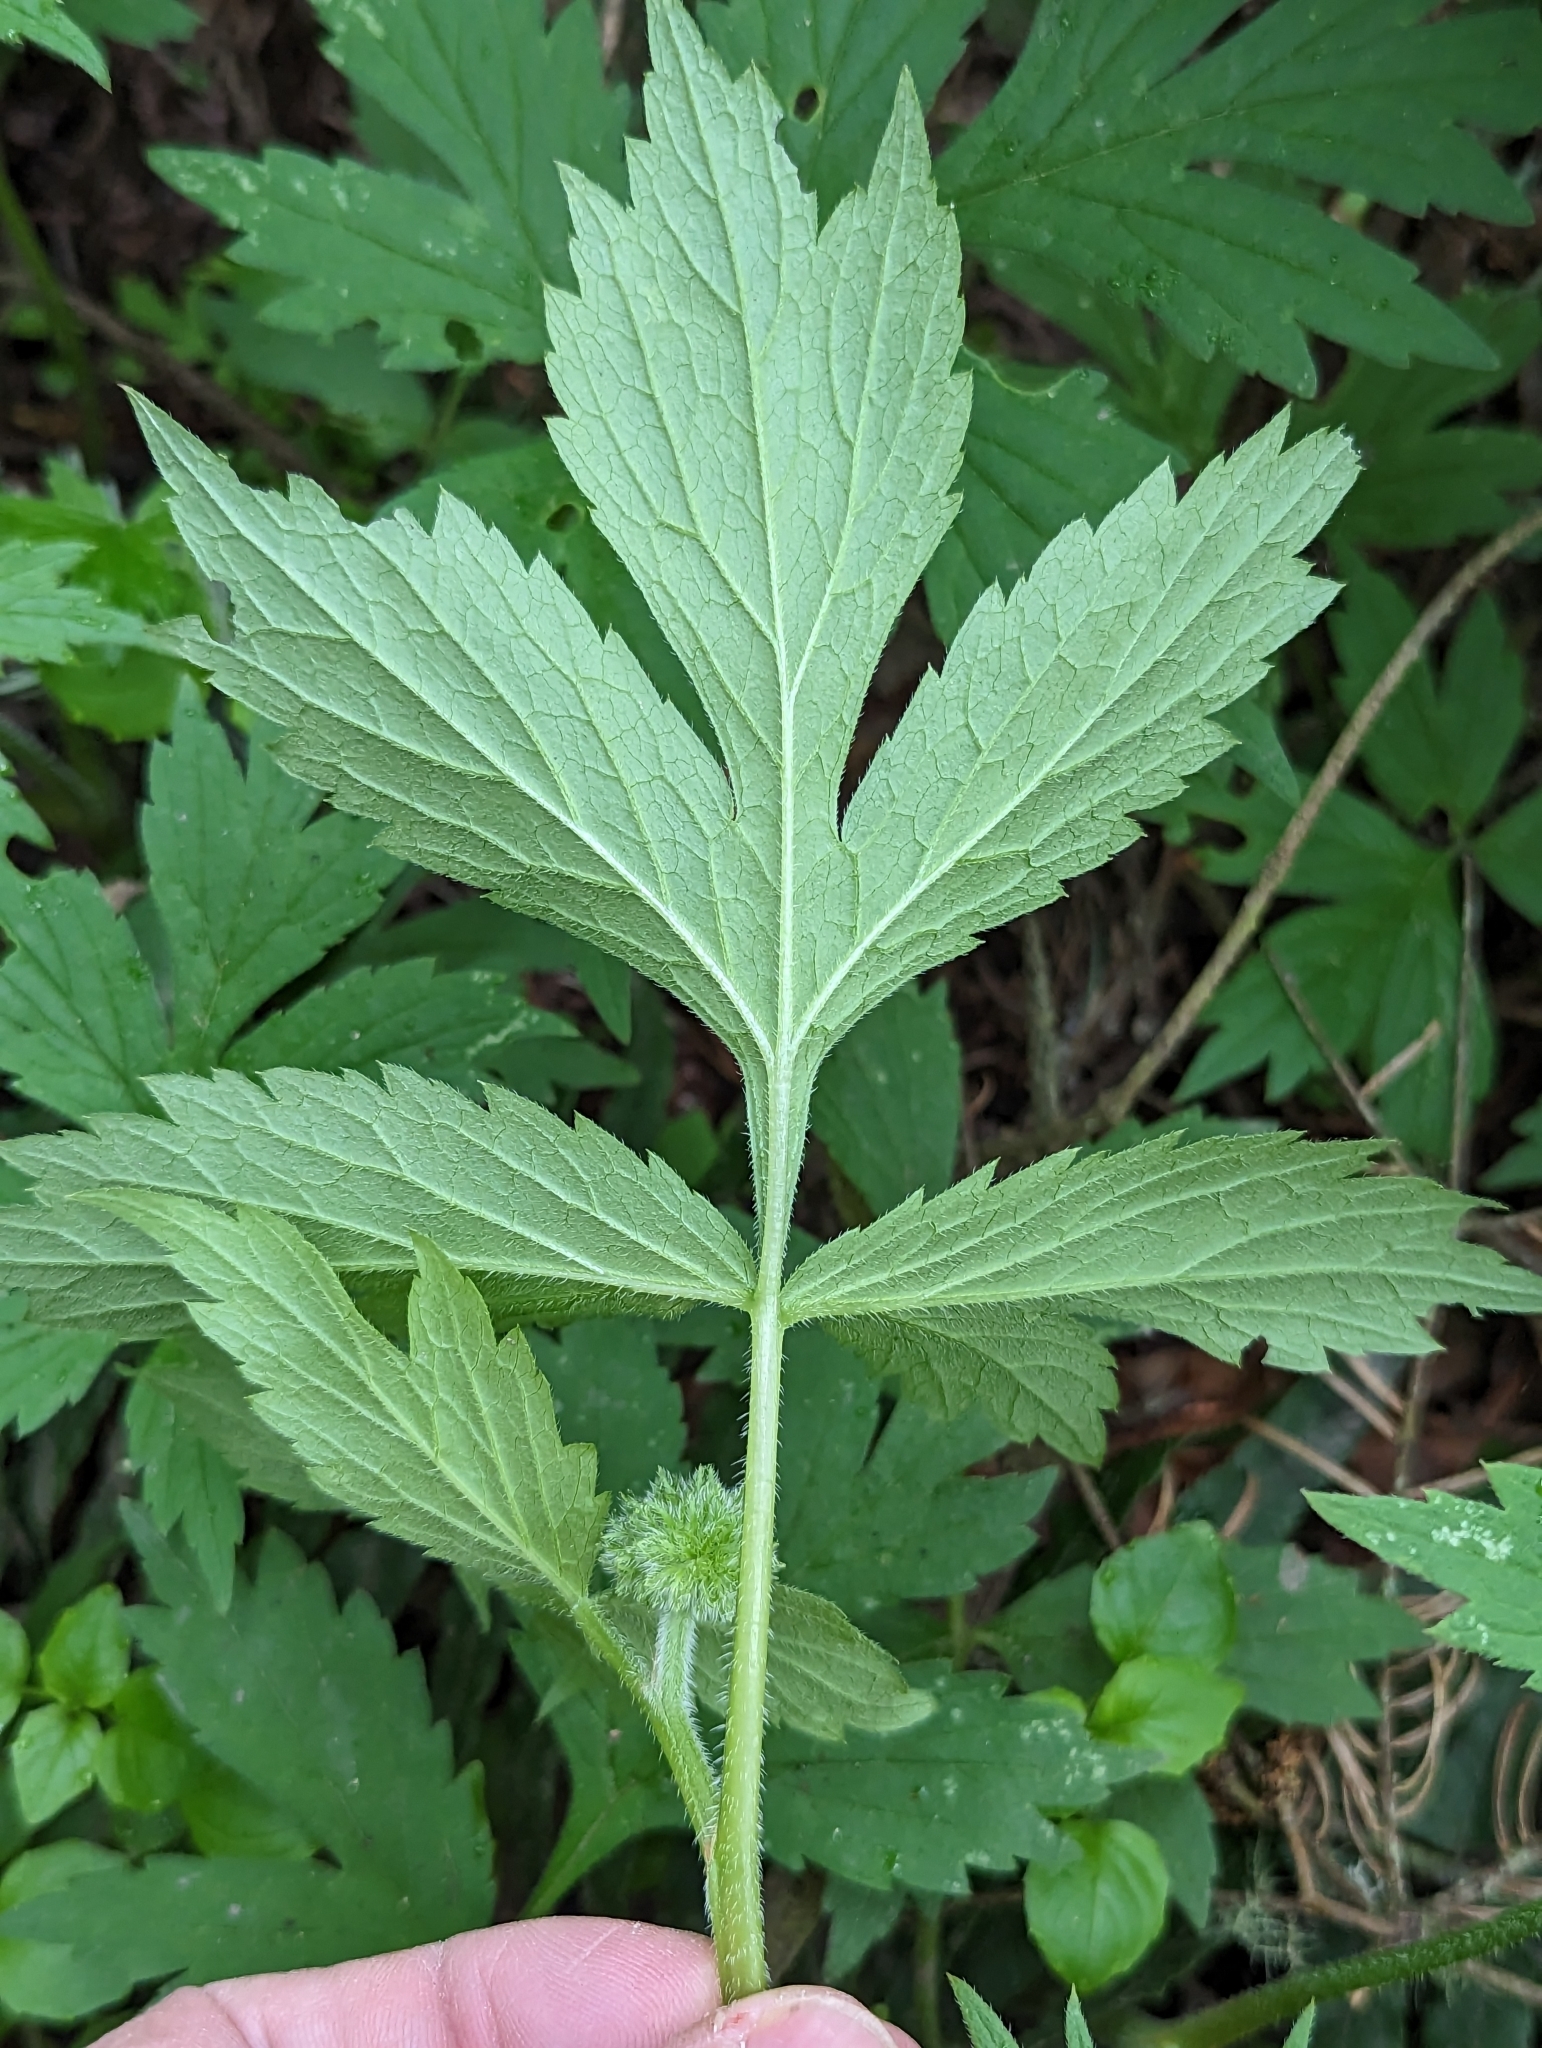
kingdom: Plantae
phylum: Tracheophyta
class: Magnoliopsida
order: Boraginales
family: Hydrophyllaceae
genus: Hydrophyllum
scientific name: Hydrophyllum tenuipes
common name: Pacific waterleaf
